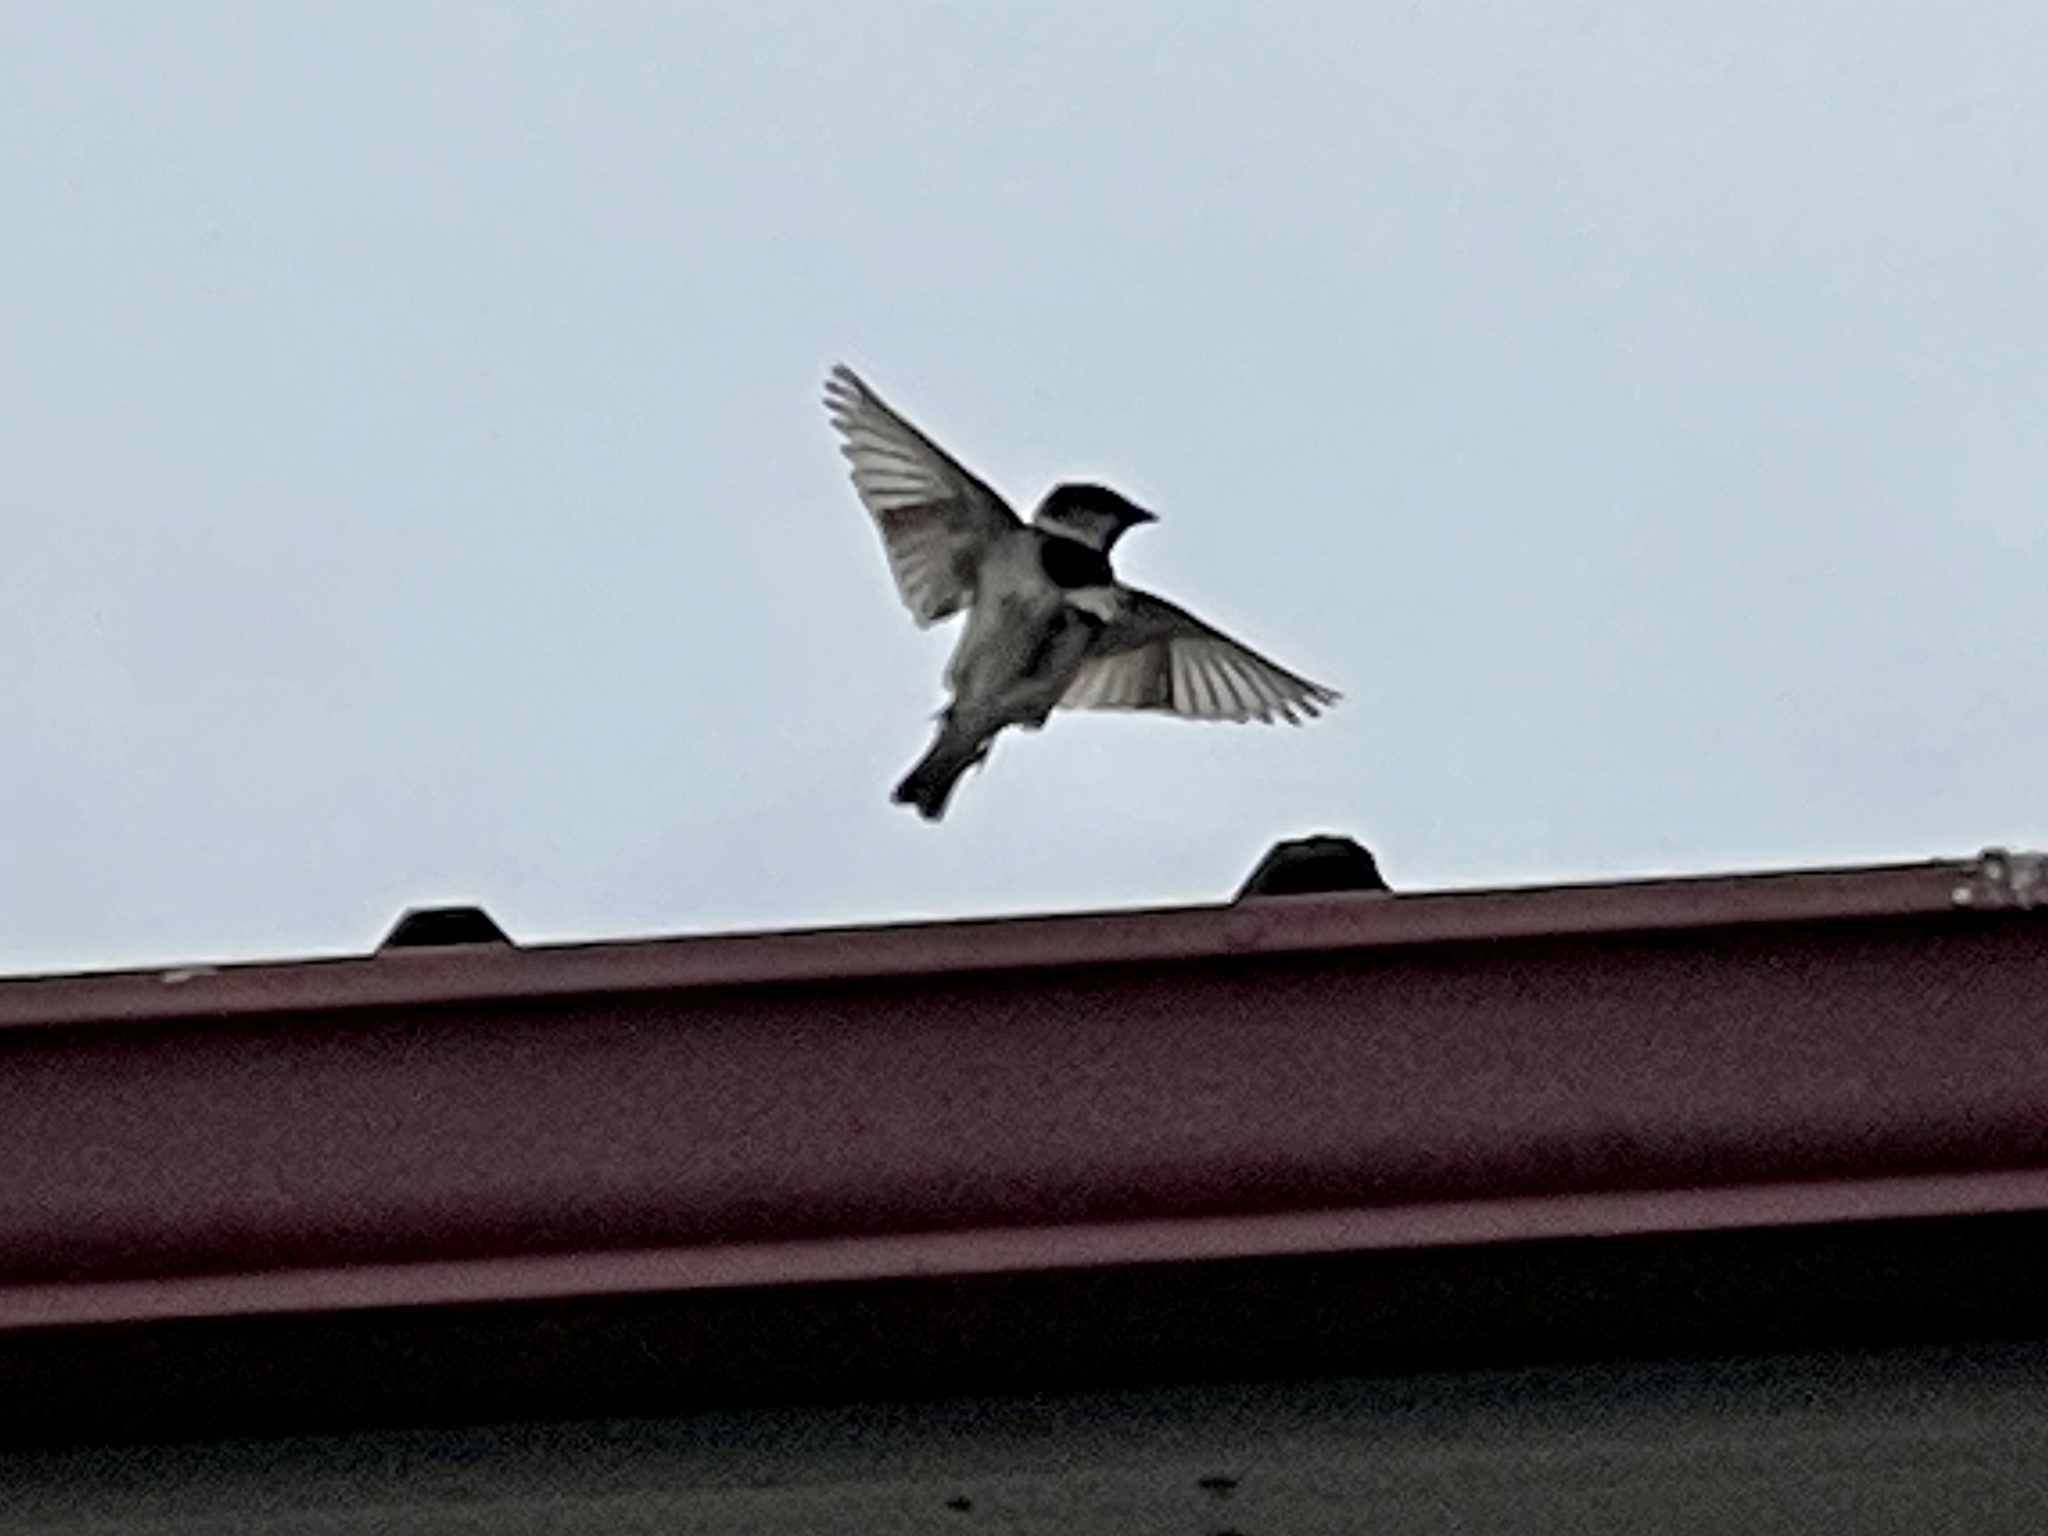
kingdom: Animalia
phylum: Chordata
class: Aves
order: Passeriformes
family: Passeridae
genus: Passer
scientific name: Passer domesticus
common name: House sparrow
